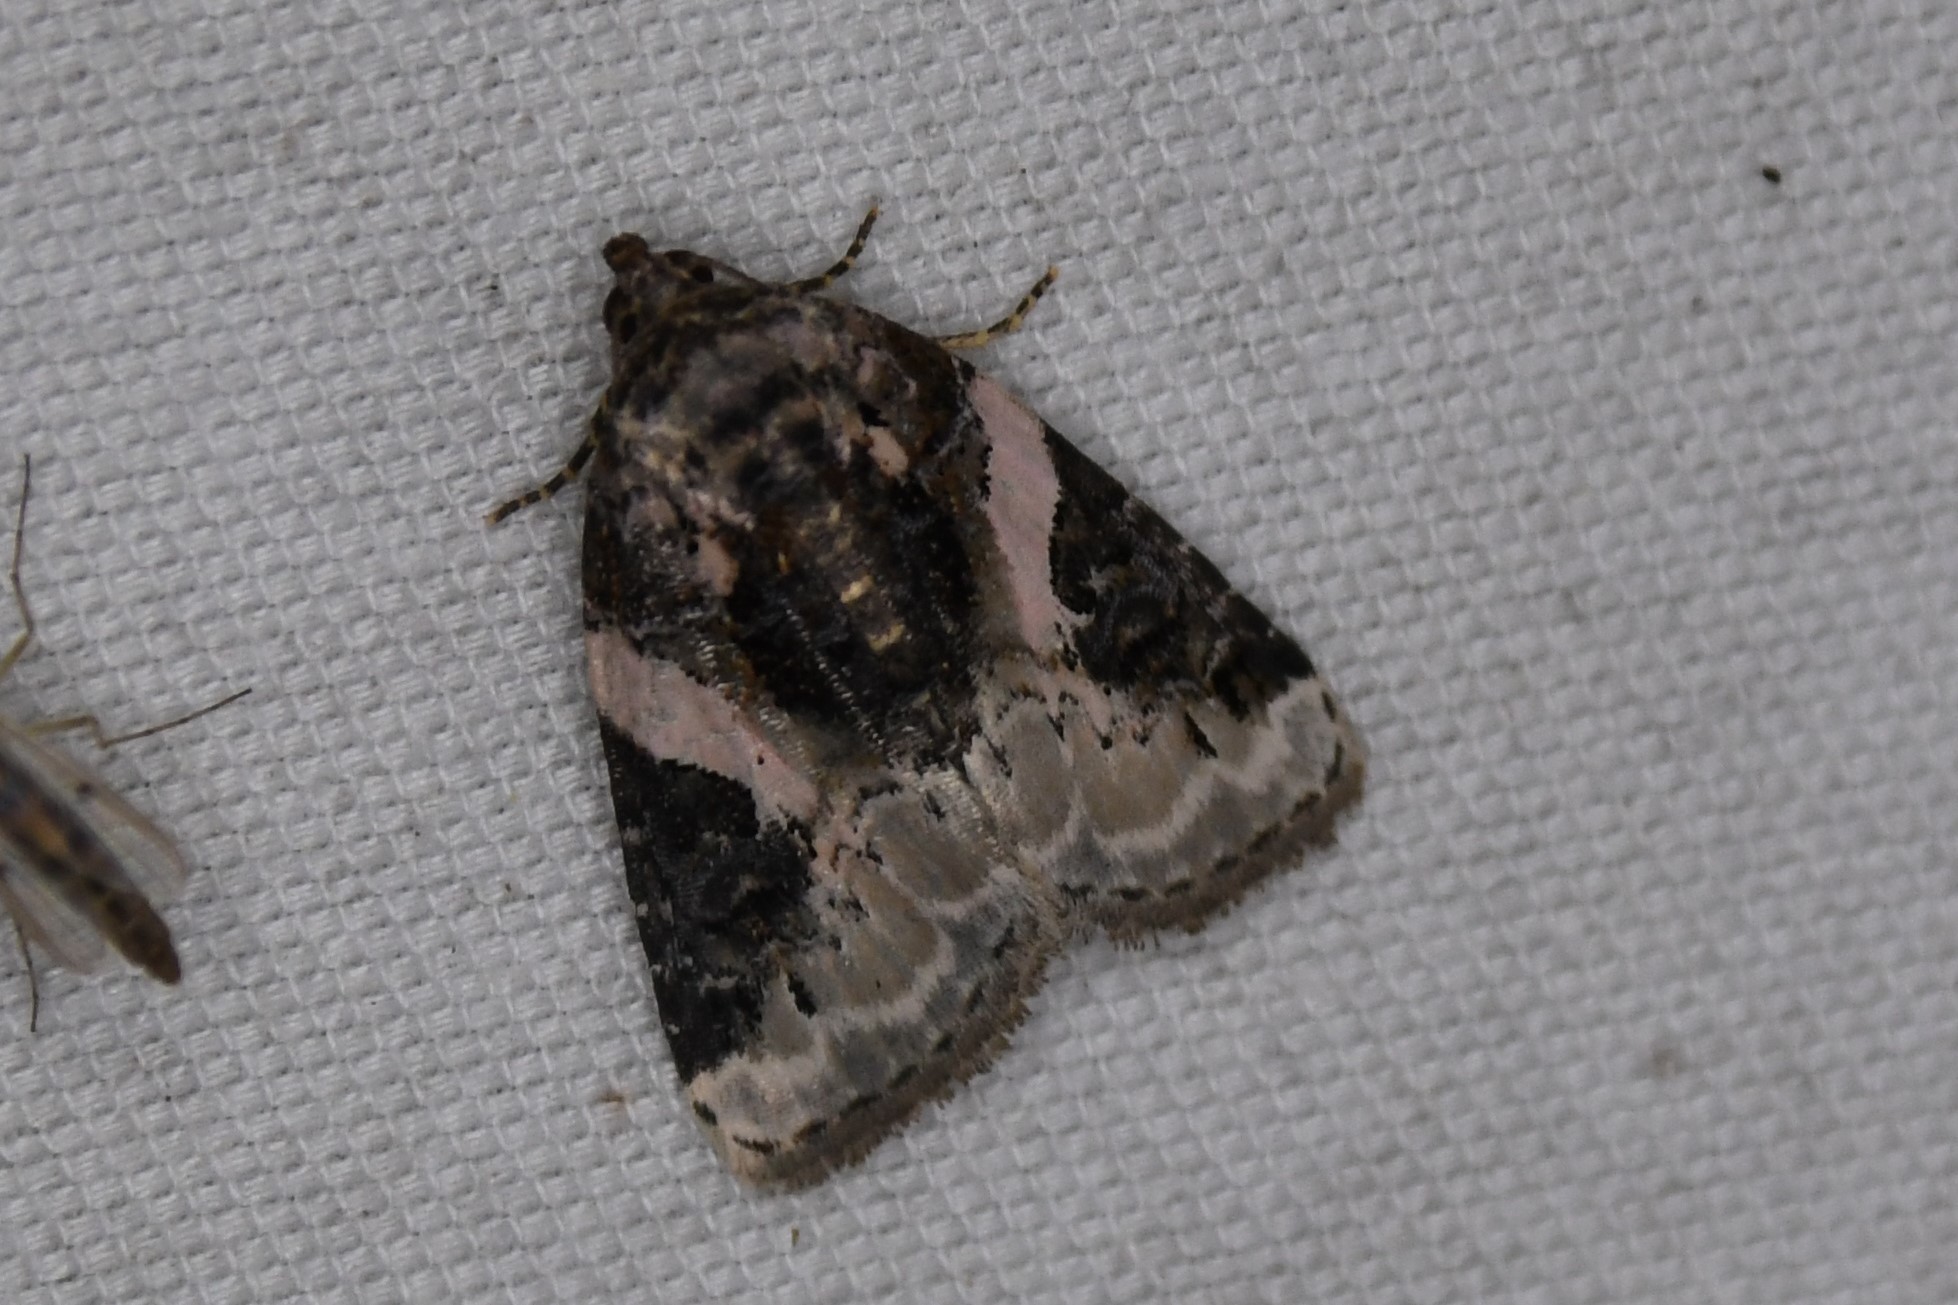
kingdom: Animalia
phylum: Arthropoda
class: Insecta
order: Lepidoptera
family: Noctuidae
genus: Pseudeustrotia
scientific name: Pseudeustrotia carneola
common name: Pink-barred lithacodia moth
